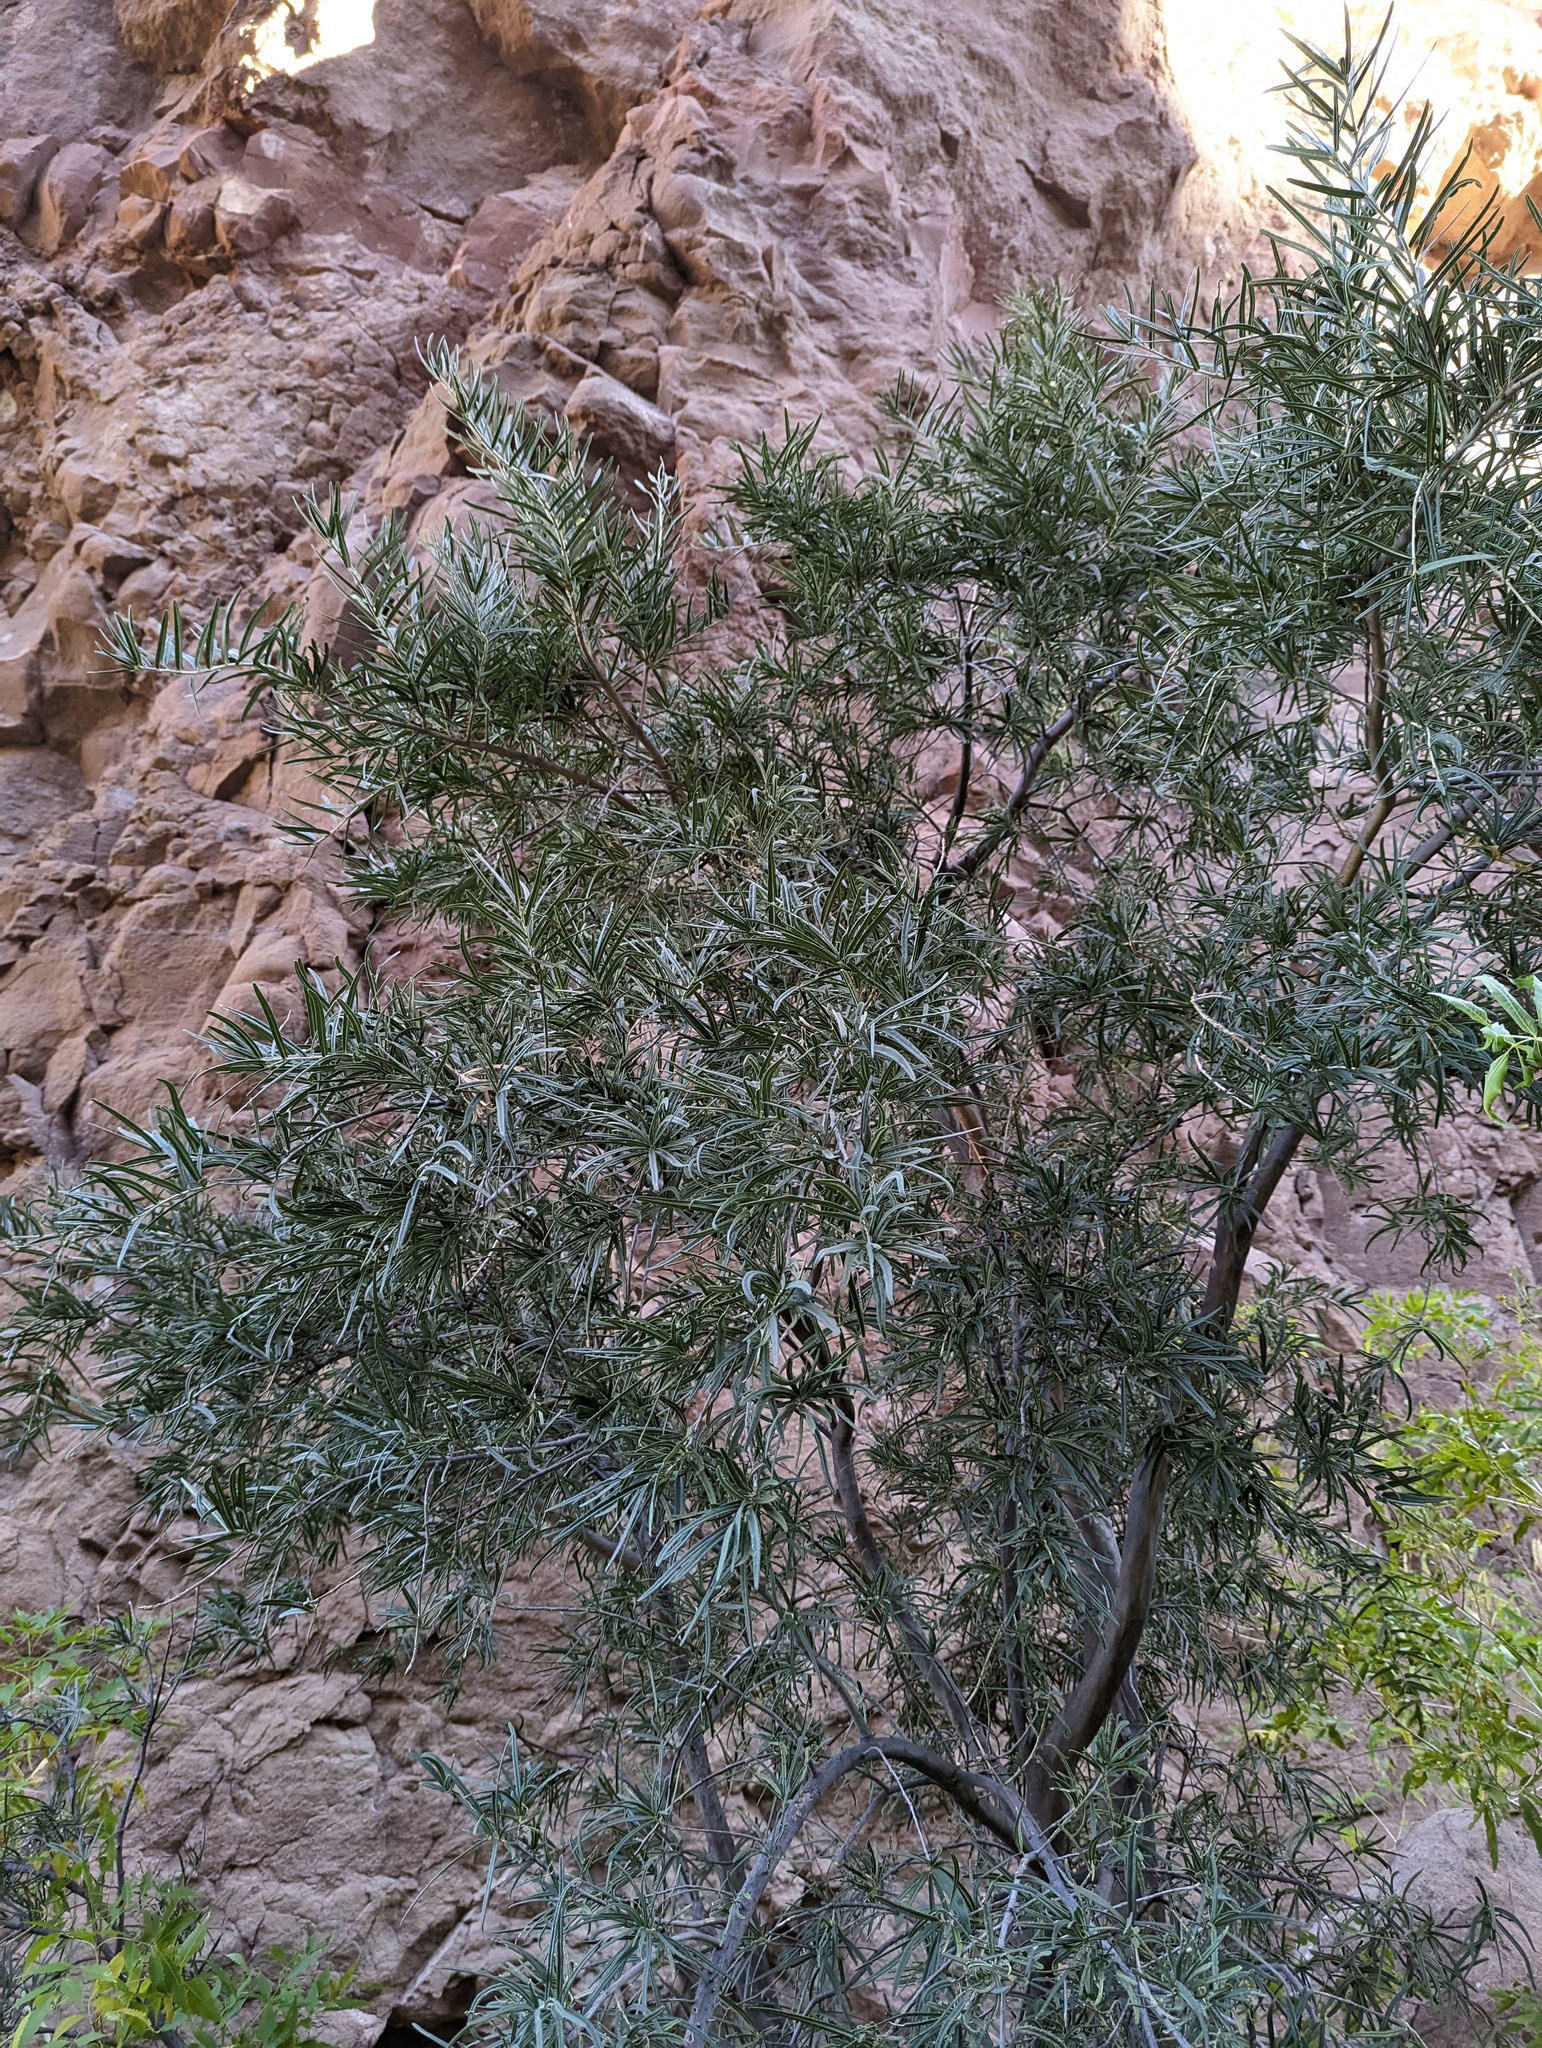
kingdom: Plantae
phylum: Tracheophyta
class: Magnoliopsida
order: Brassicales
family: Stixaceae
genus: Forchhammeria
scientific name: Forchhammeria watsonii
